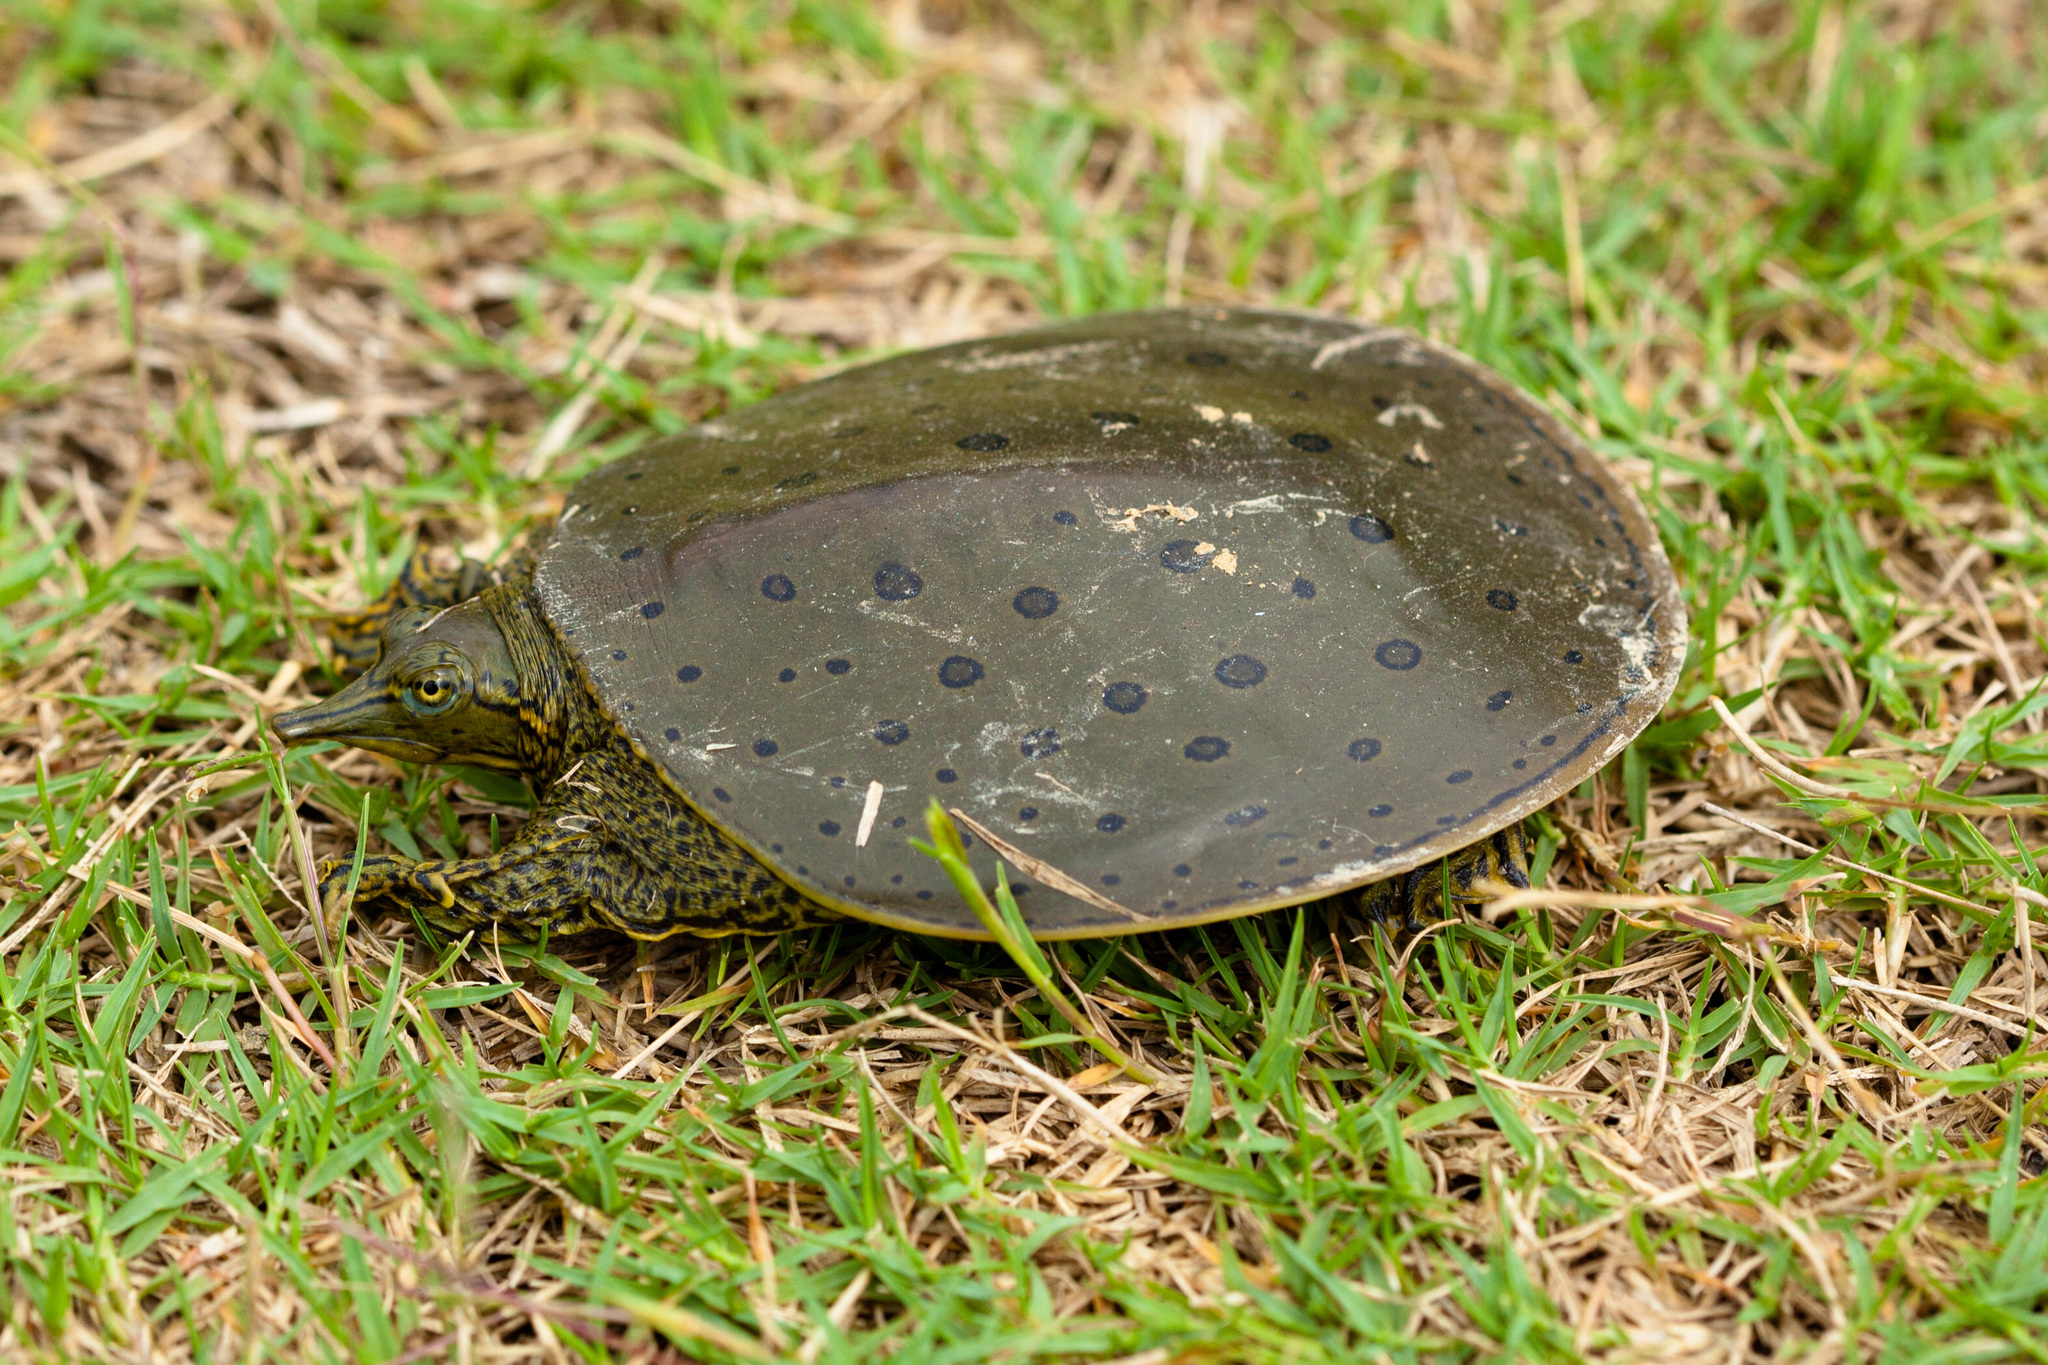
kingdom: Animalia
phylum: Chordata
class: Testudines
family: Trionychidae
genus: Apalone
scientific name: Apalone spinifera
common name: Spiny softshell turtle
